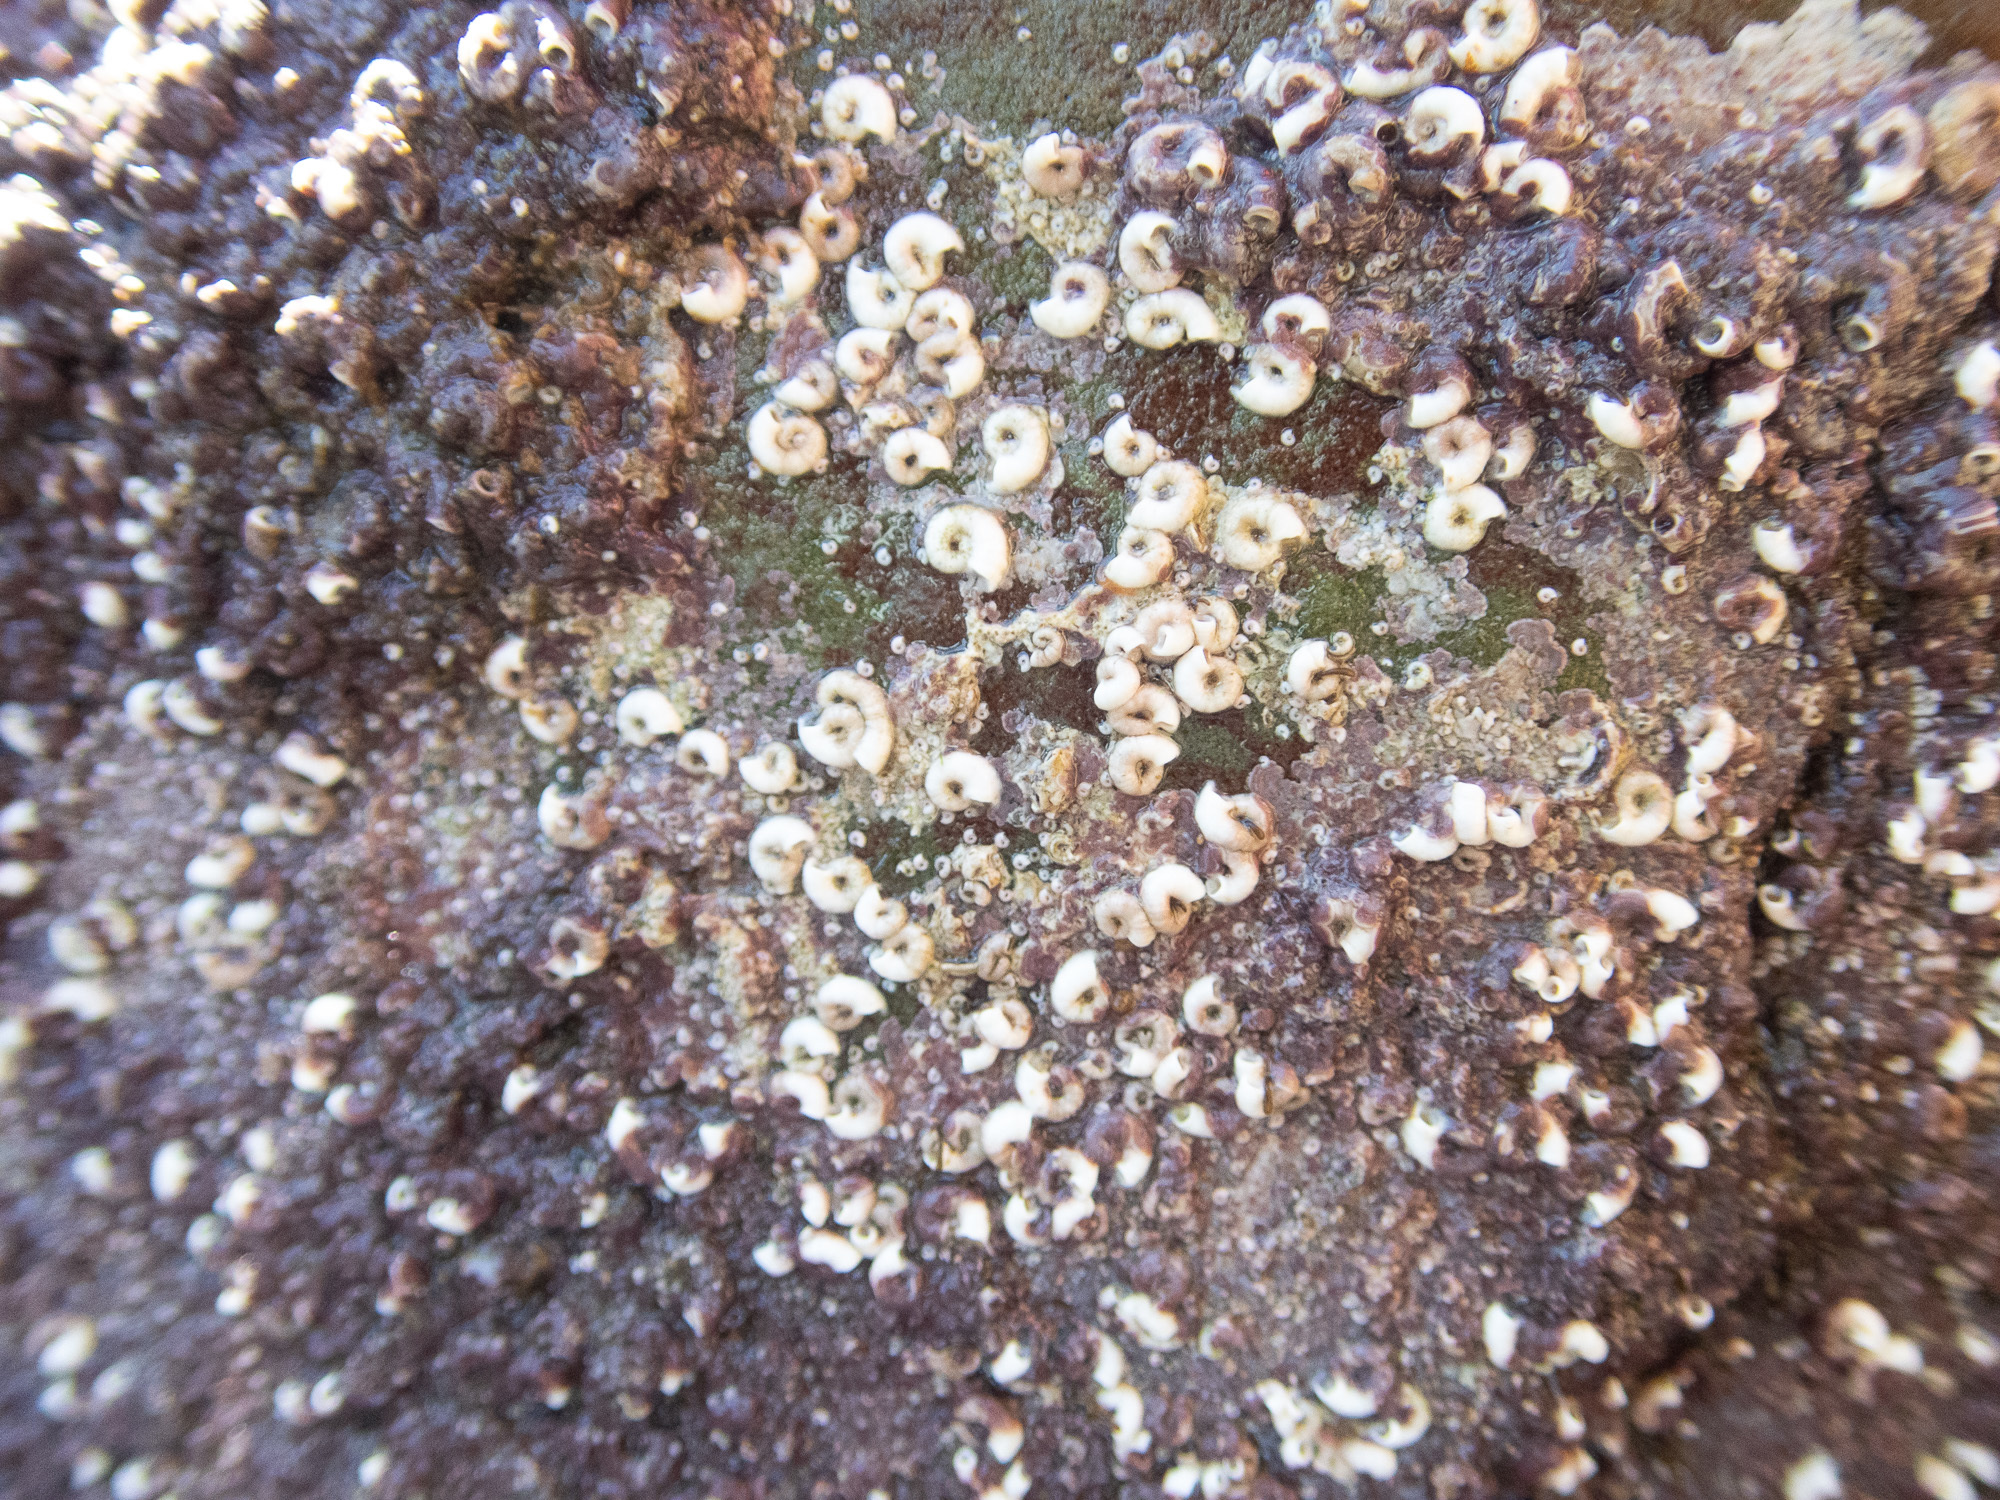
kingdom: Animalia
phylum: Annelida
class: Polychaeta
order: Sabellida
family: Serpulidae
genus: Spirorbis
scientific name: Spirorbis spirorbis
